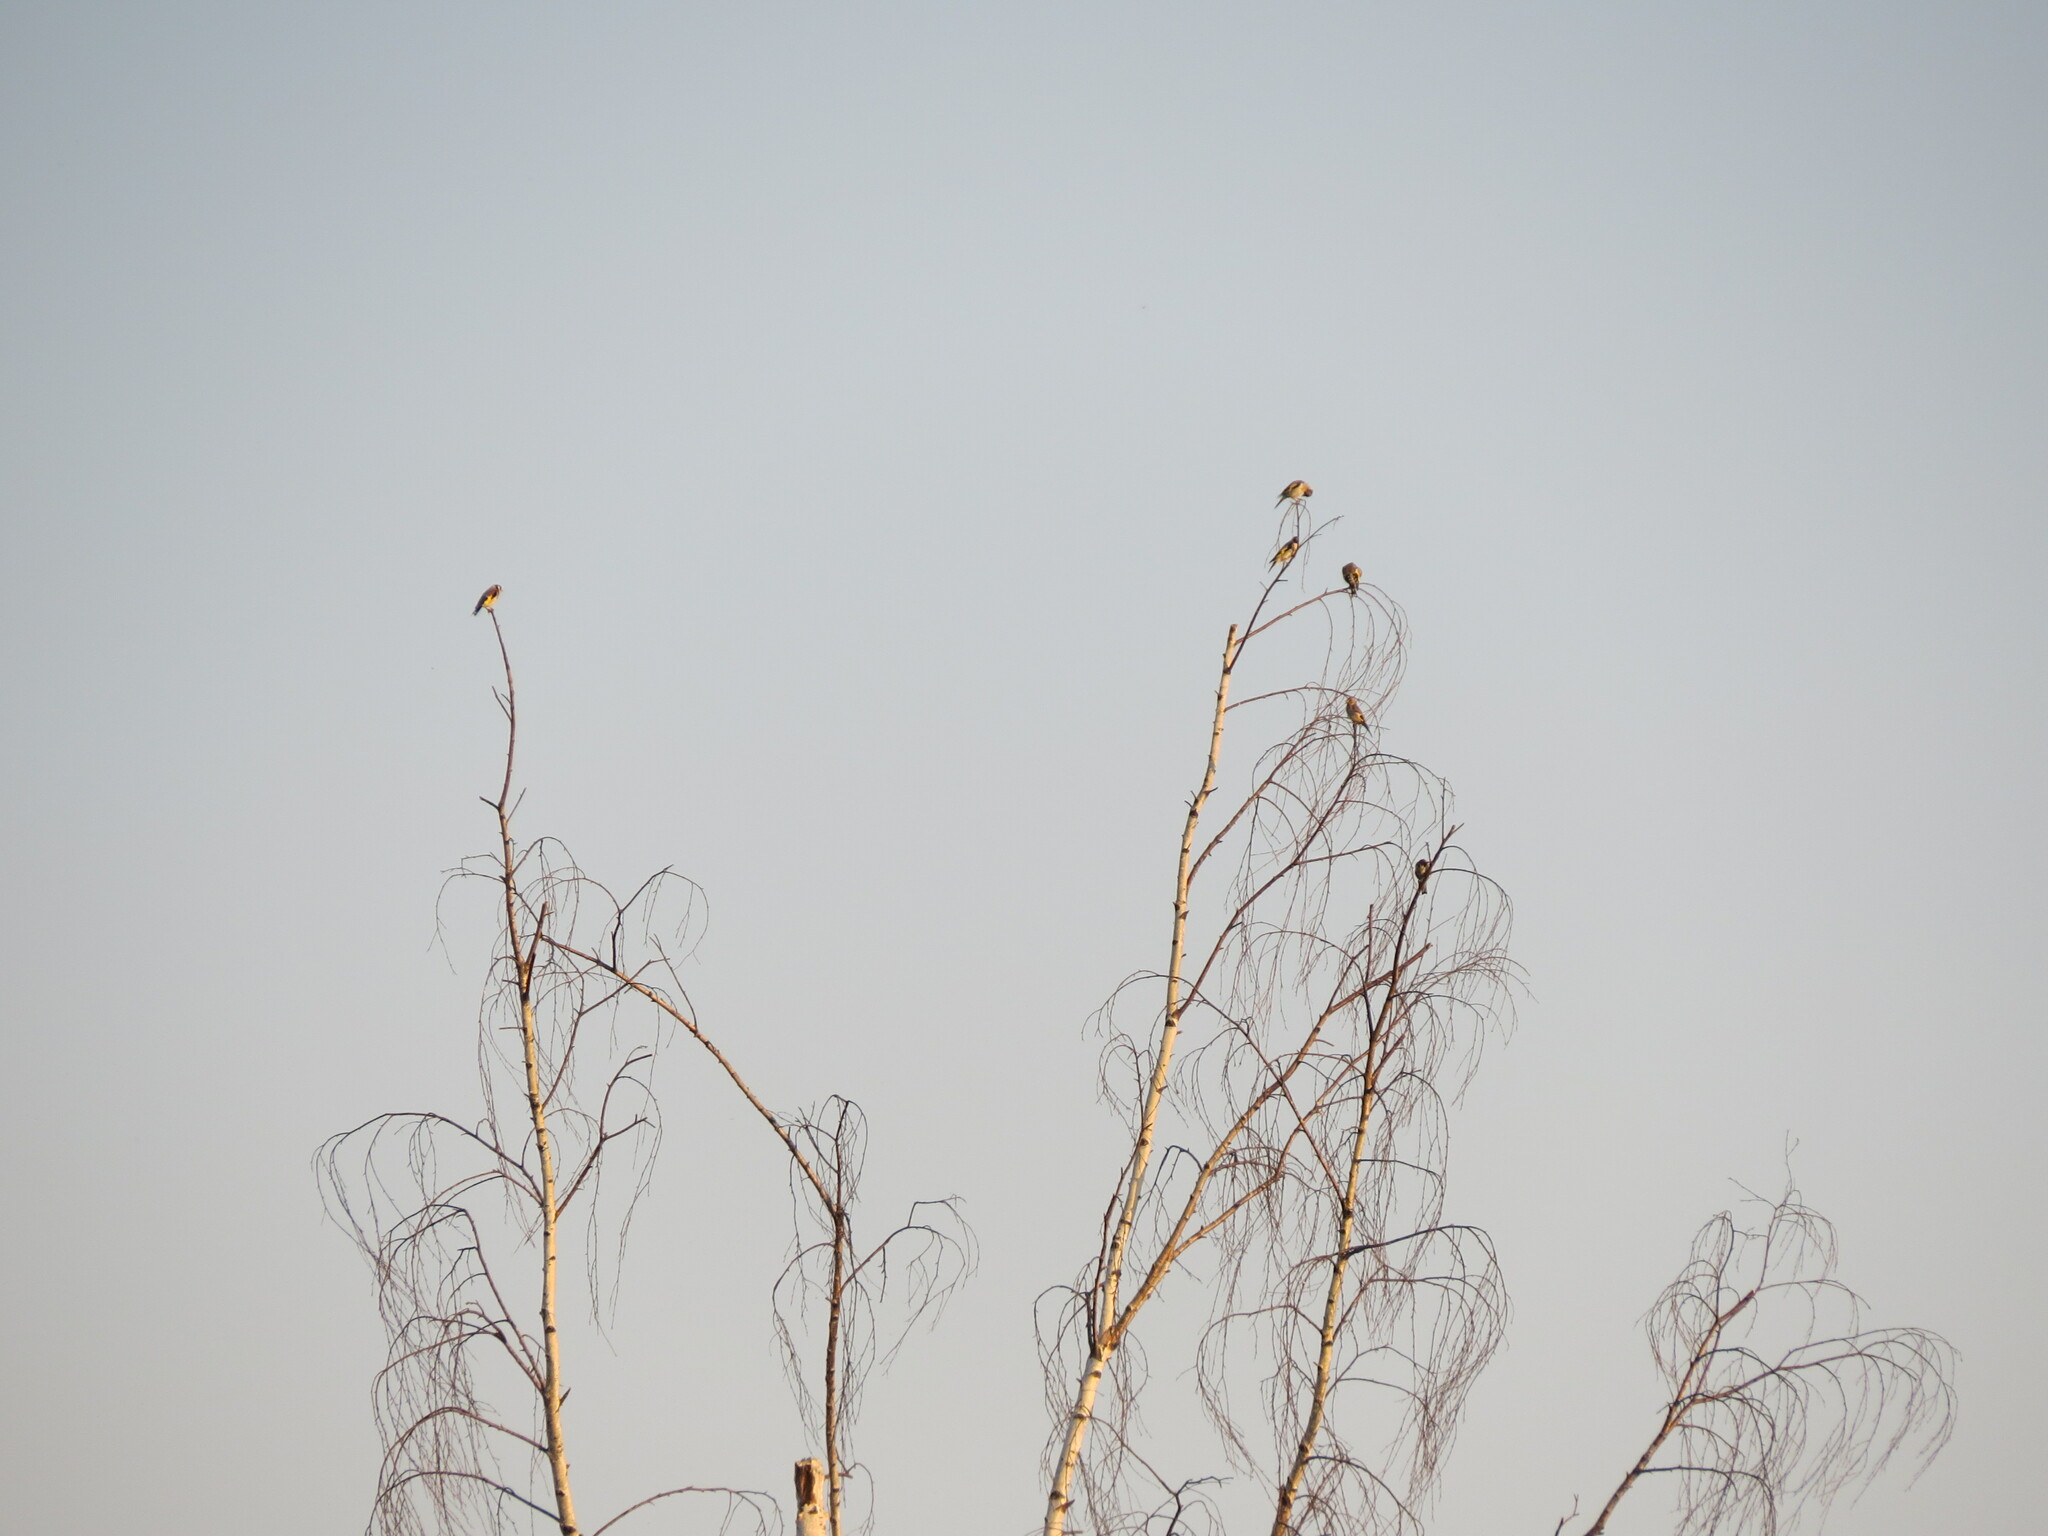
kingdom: Animalia
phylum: Chordata
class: Aves
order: Passeriformes
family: Fringillidae
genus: Carduelis
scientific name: Carduelis carduelis
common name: European goldfinch
